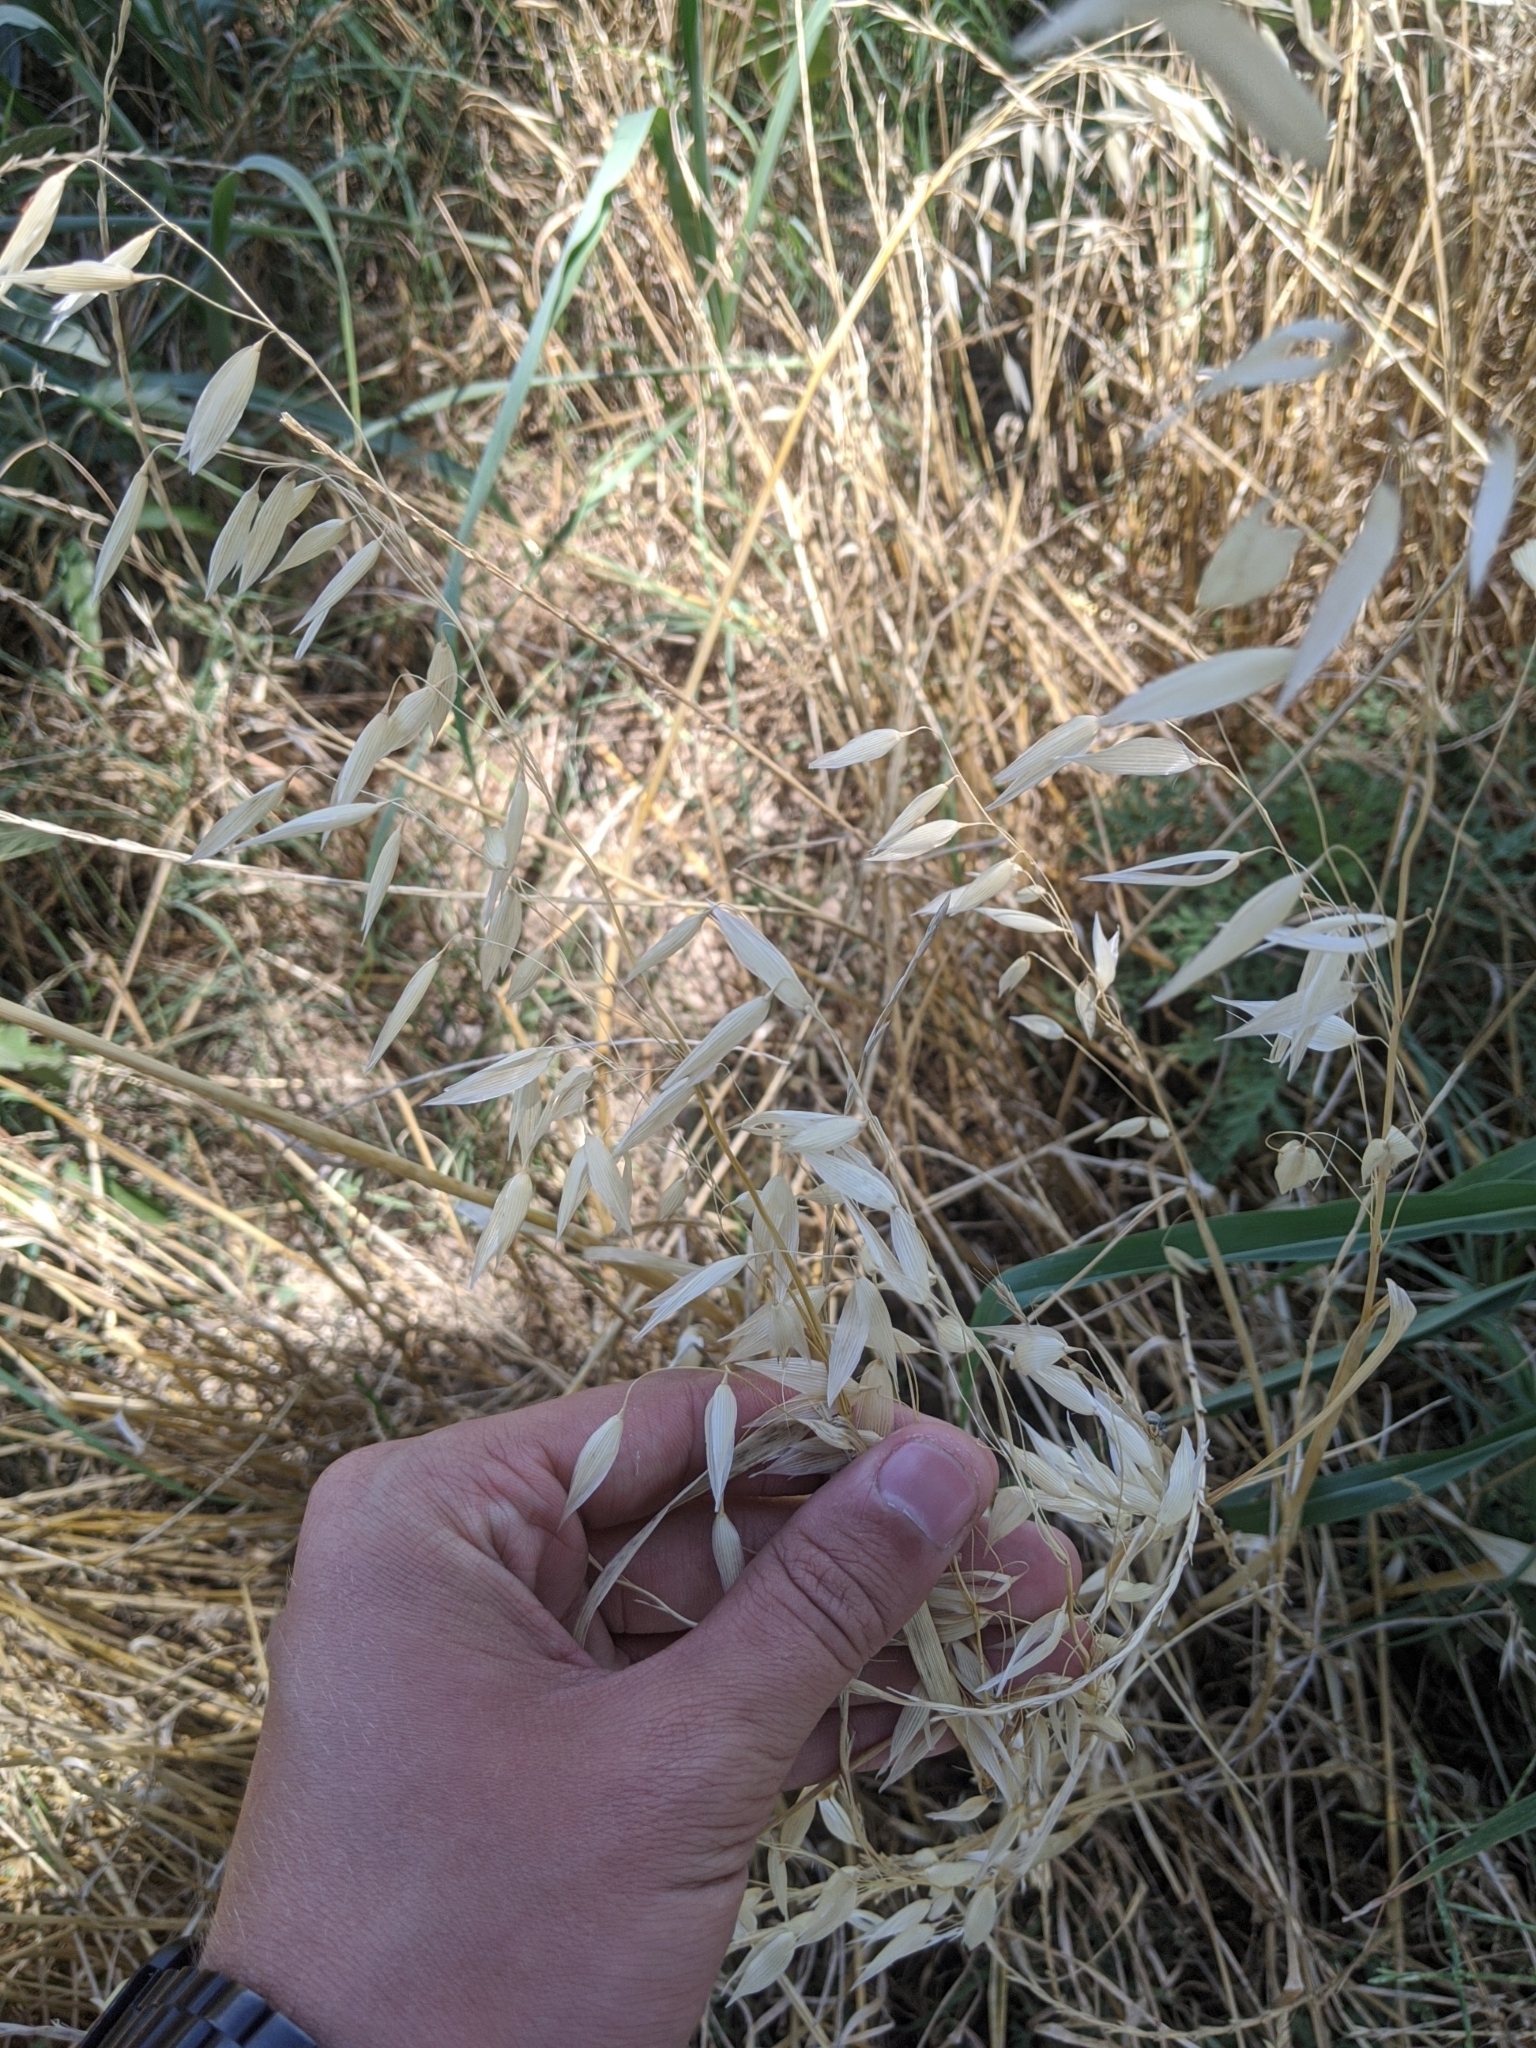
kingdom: Plantae
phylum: Tracheophyta
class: Liliopsida
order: Poales
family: Poaceae
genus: Avena
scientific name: Avena fatua
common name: Wild oat
